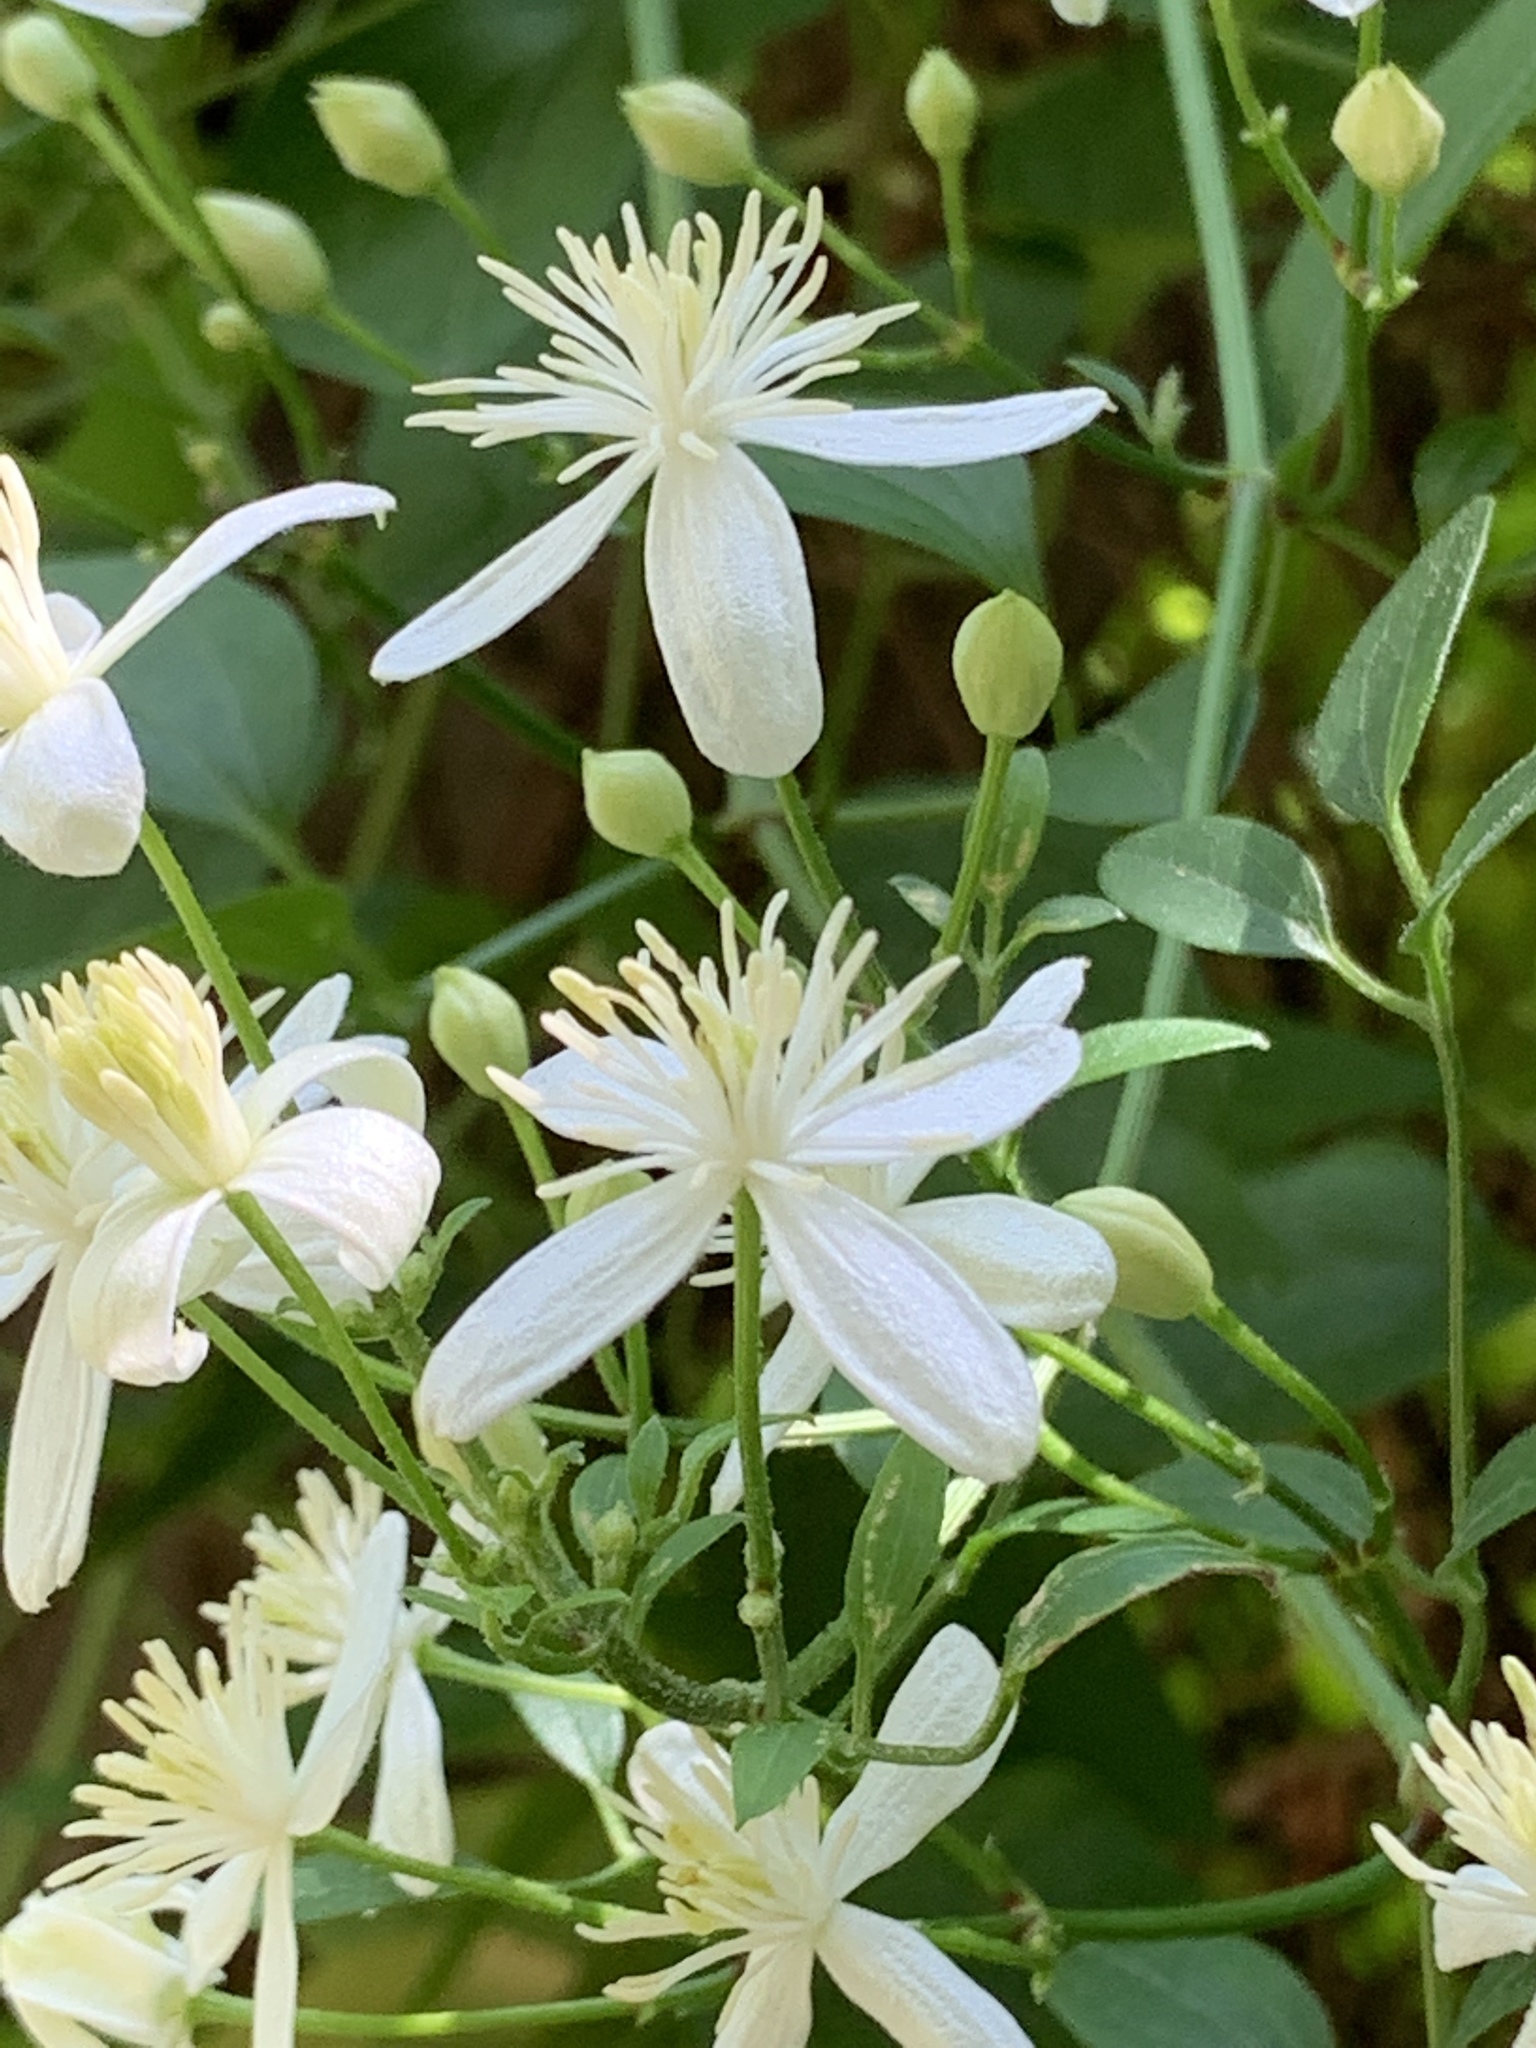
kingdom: Plantae
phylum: Tracheophyta
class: Magnoliopsida
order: Ranunculales
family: Ranunculaceae
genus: Clematis
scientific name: Clematis terniflora
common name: Sweet autumn clematis
